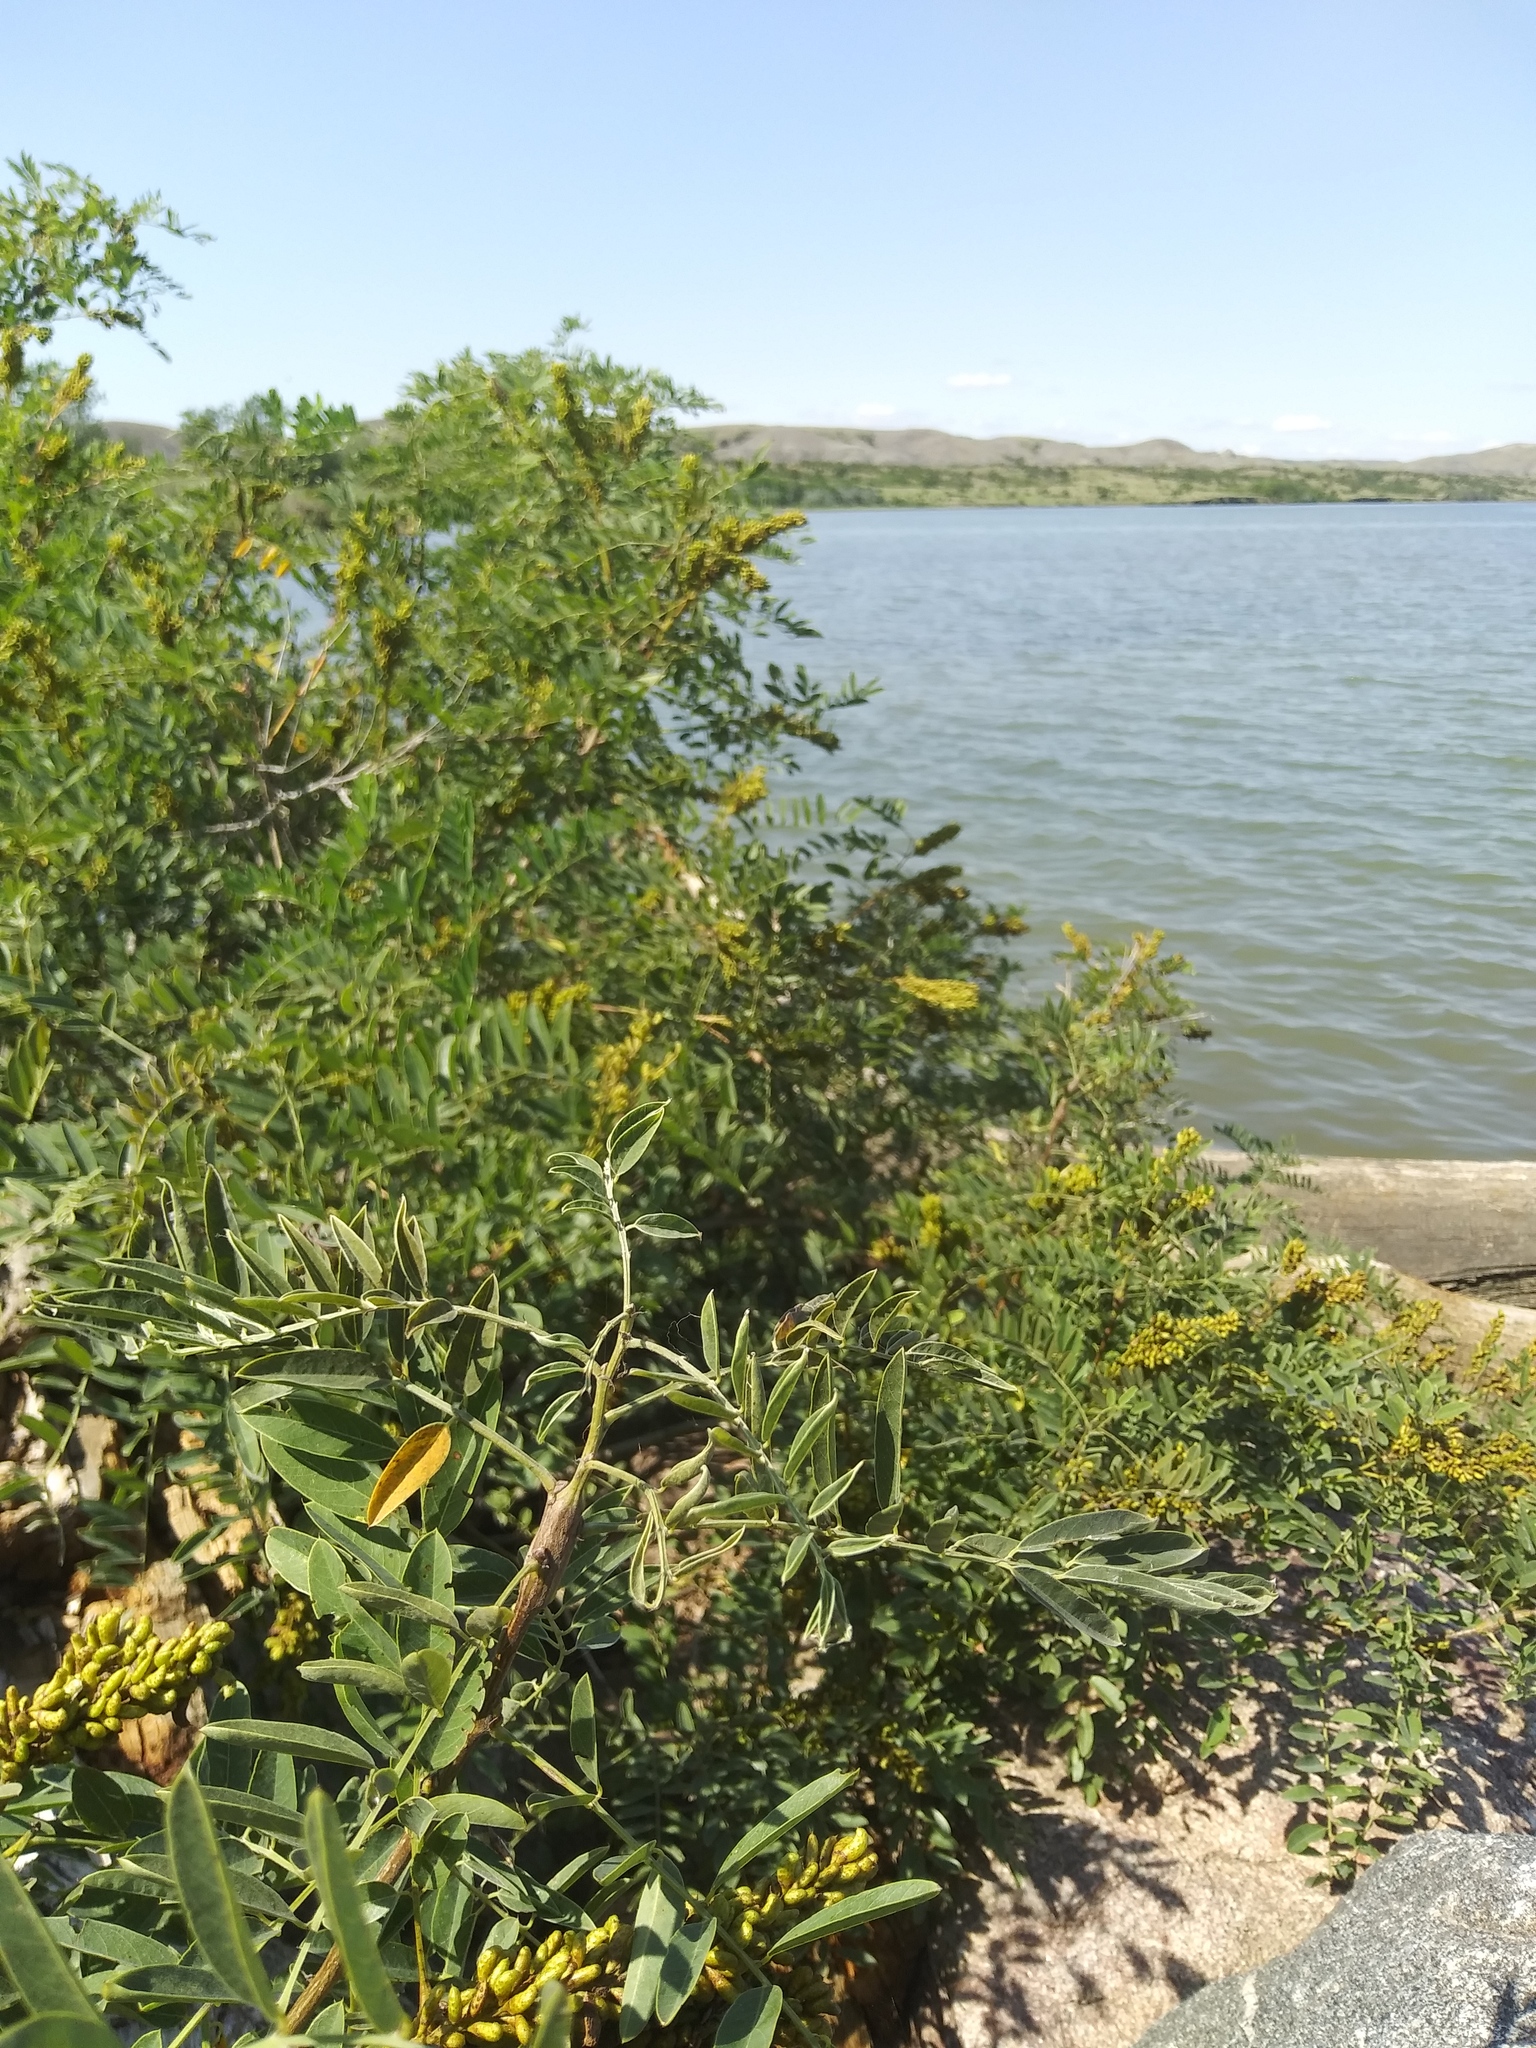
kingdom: Plantae
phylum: Tracheophyta
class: Magnoliopsida
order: Fabales
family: Fabaceae
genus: Amorpha
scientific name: Amorpha fruticosa
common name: False indigo
